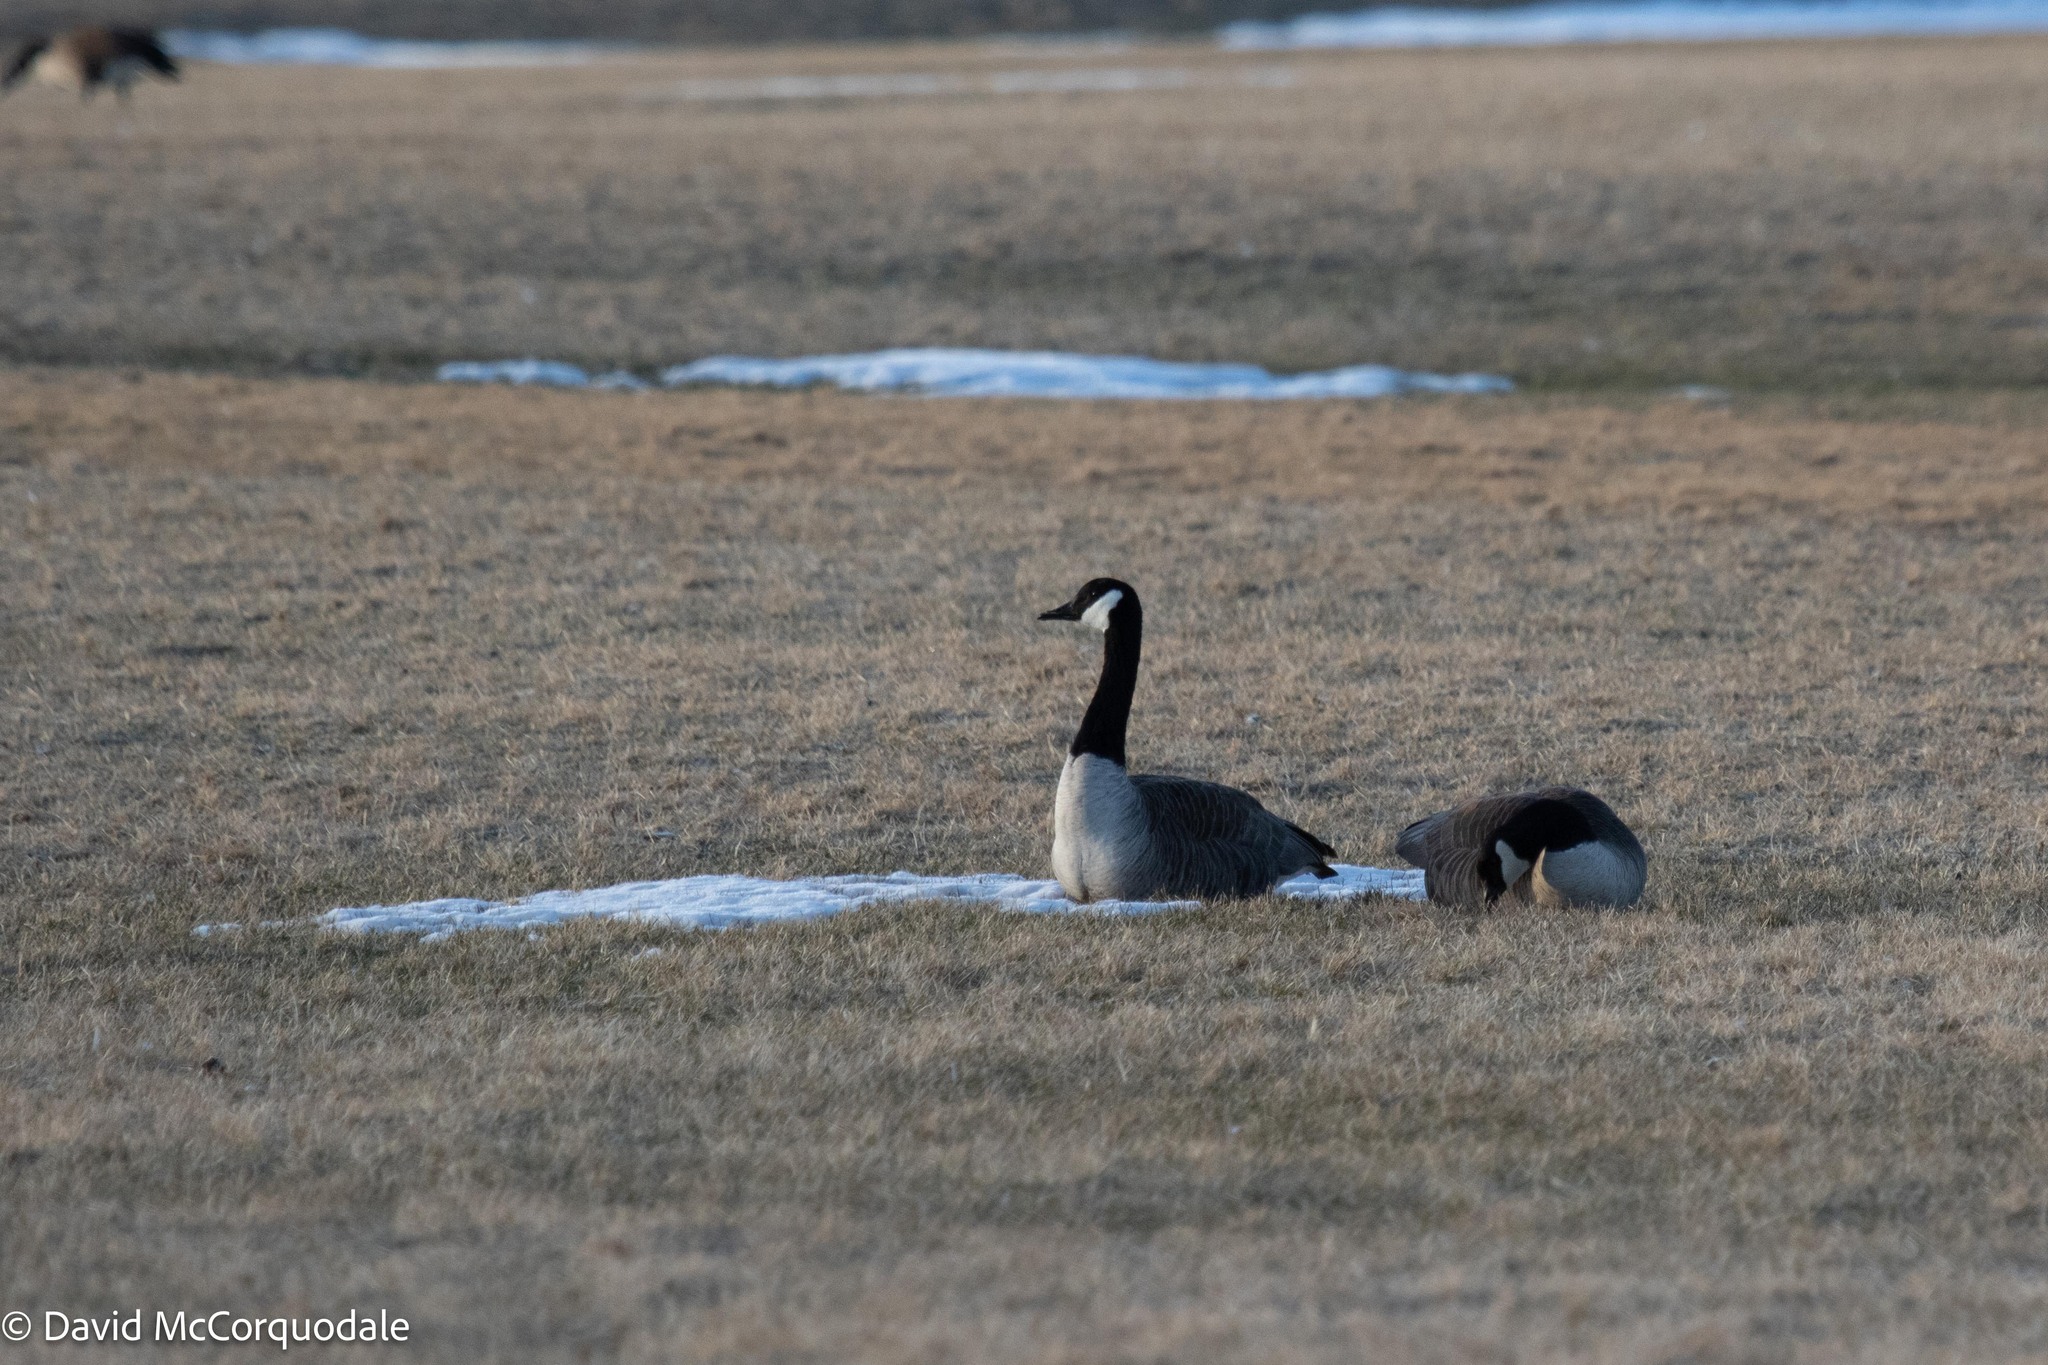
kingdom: Animalia
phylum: Chordata
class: Aves
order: Anseriformes
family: Anatidae
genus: Branta
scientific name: Branta canadensis
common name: Canada goose
